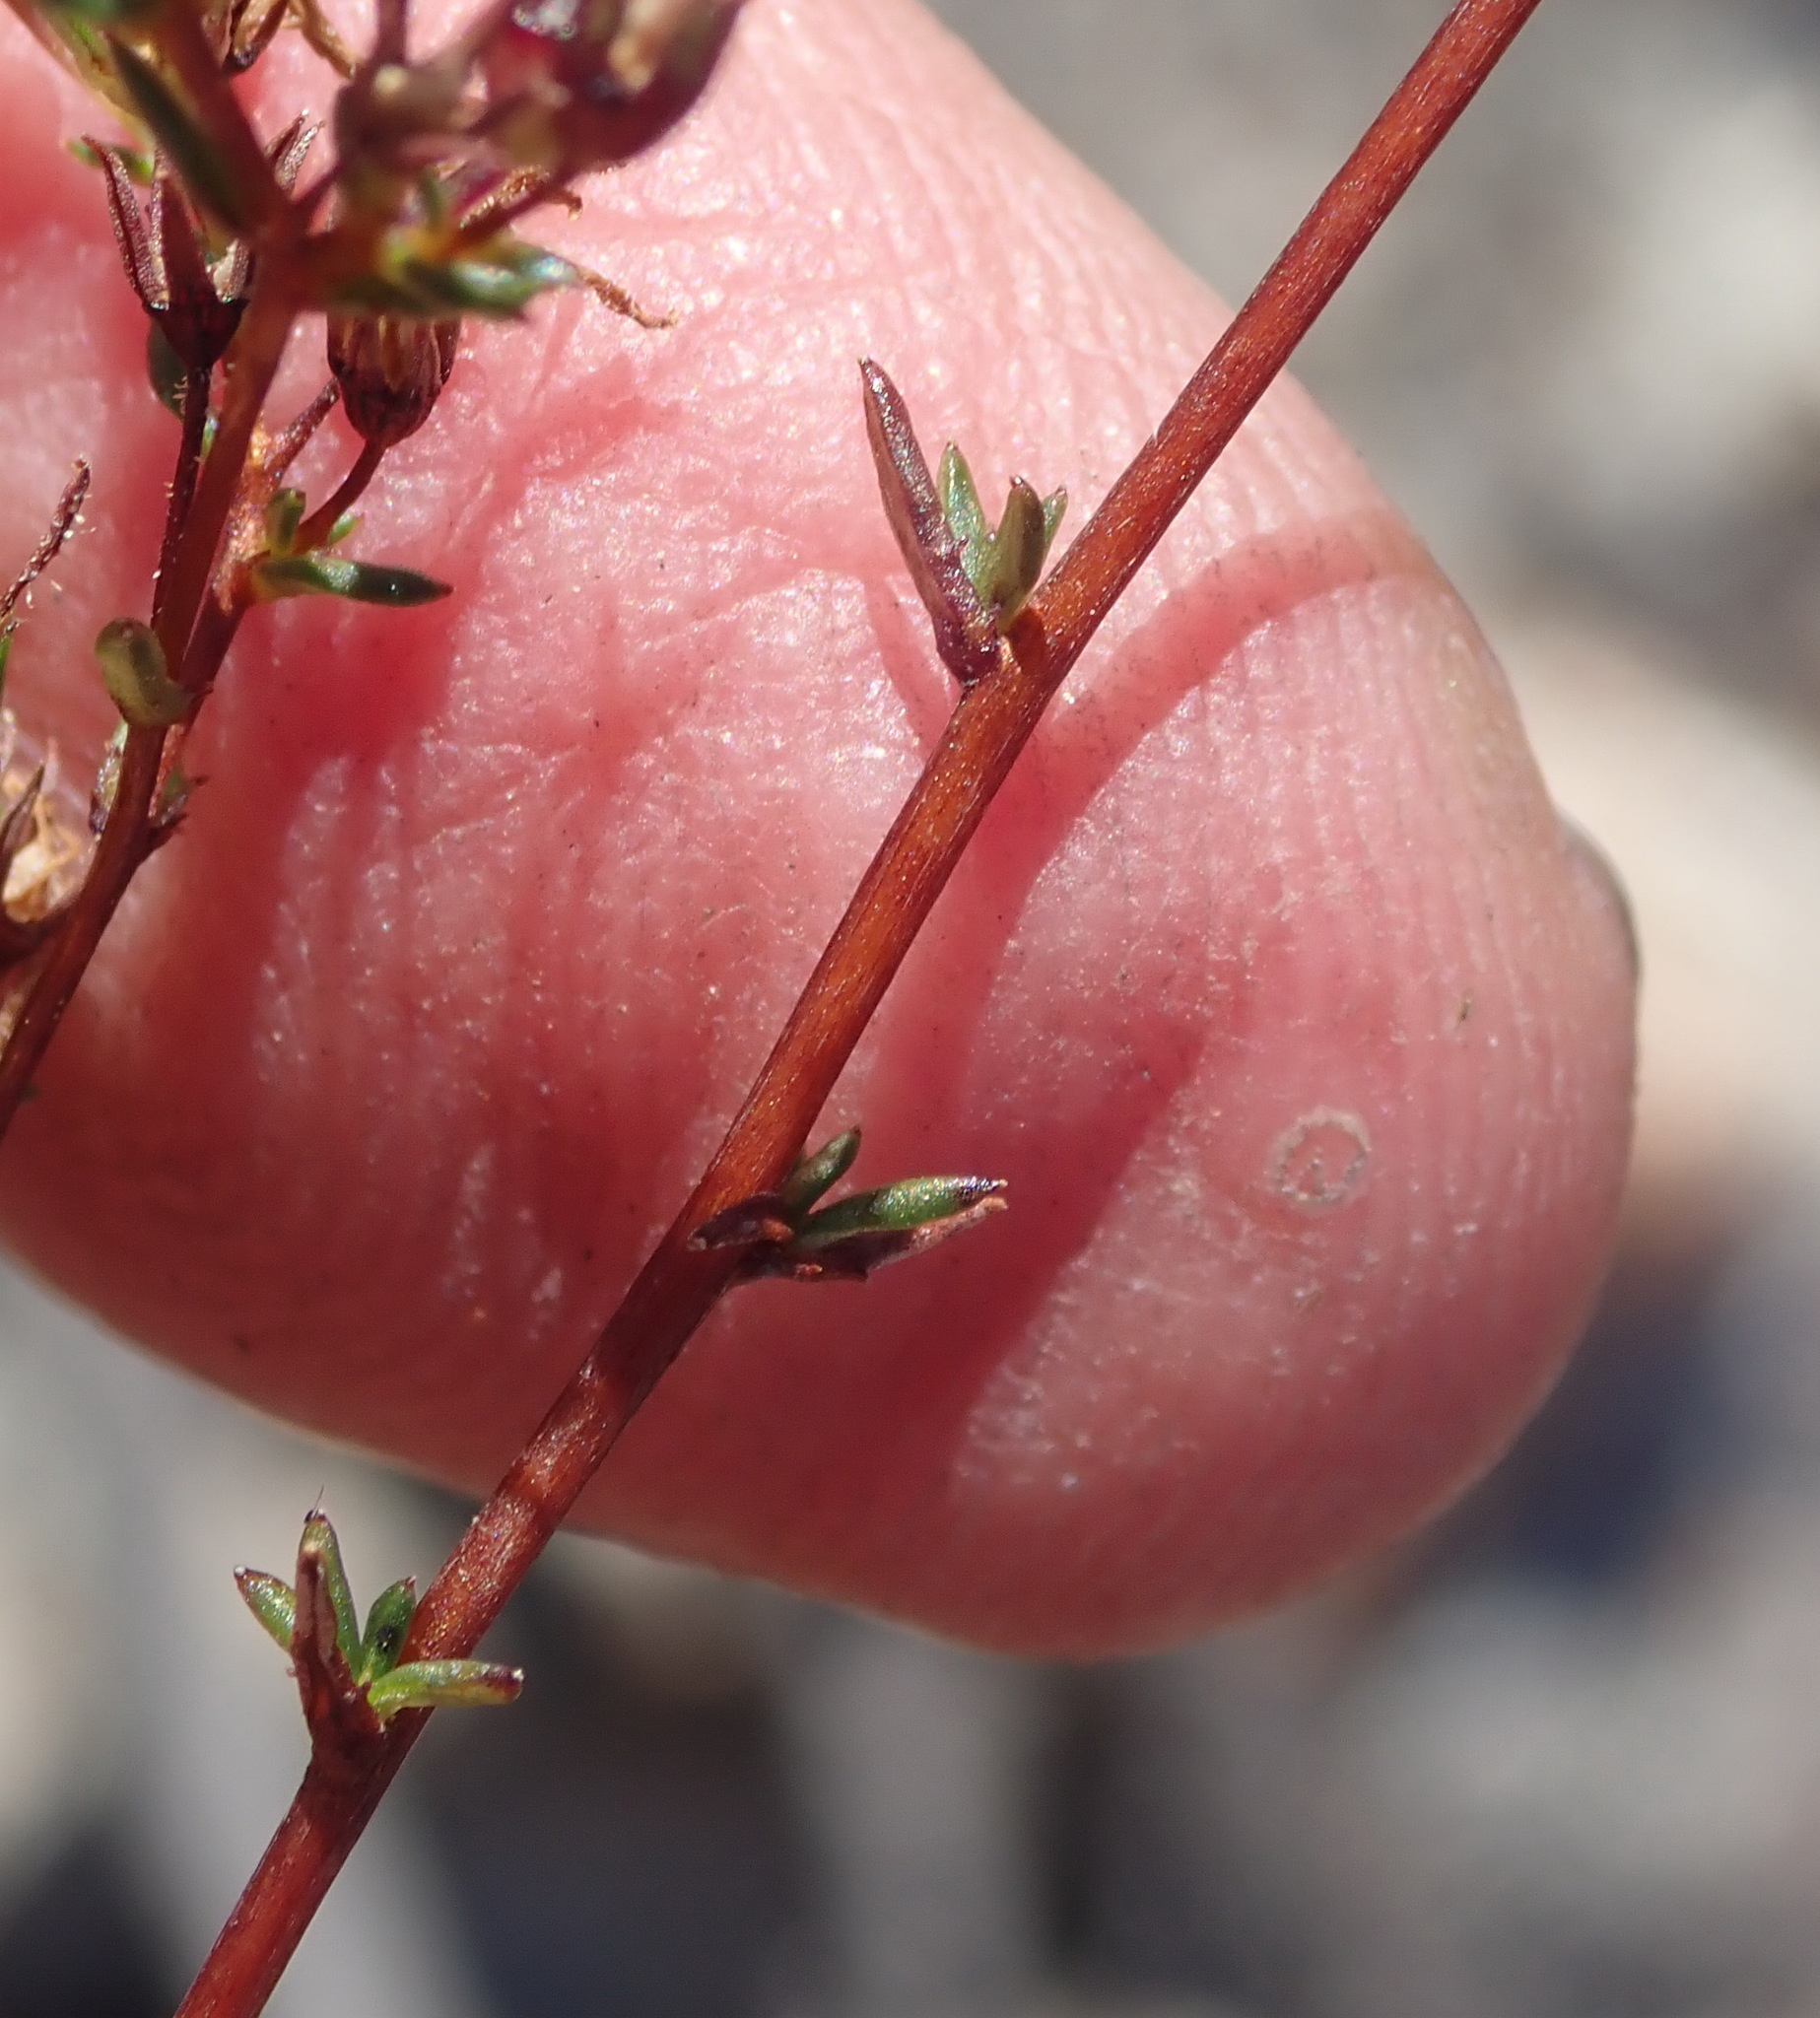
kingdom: Plantae
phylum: Tracheophyta
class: Magnoliopsida
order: Asterales
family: Campanulaceae
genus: Wahlenbergia
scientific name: Wahlenbergia rubens
